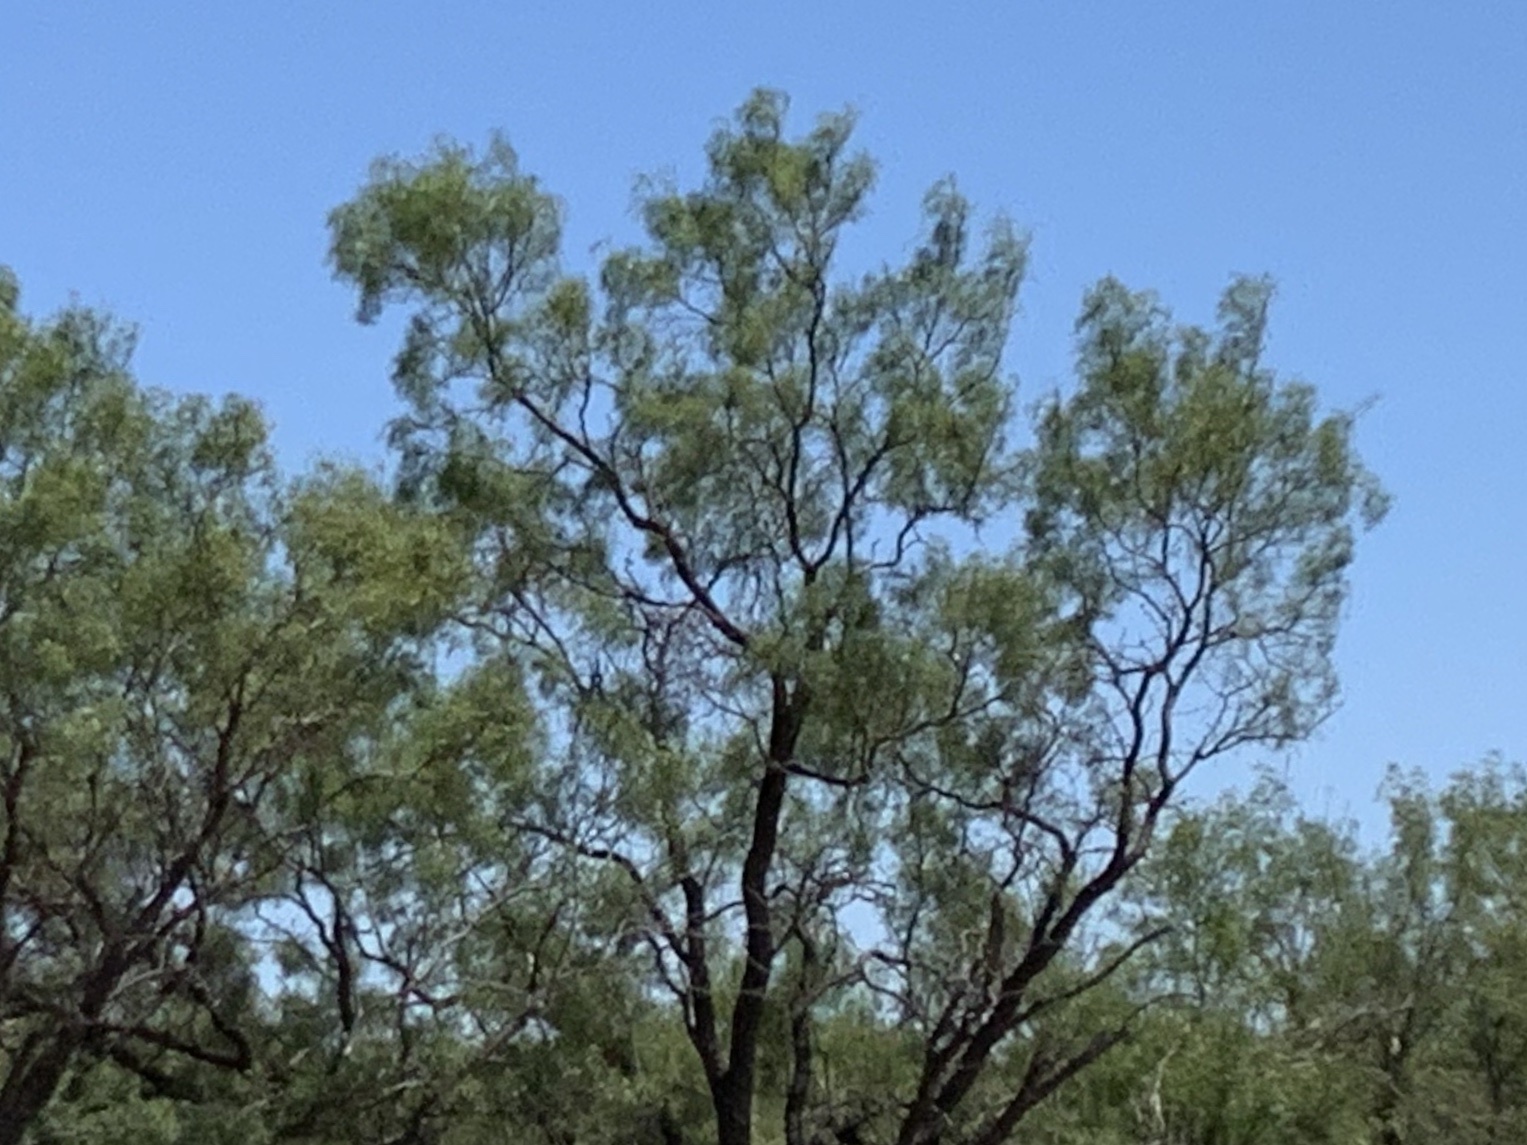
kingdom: Plantae
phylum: Tracheophyta
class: Magnoliopsida
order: Fabales
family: Fabaceae
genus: Prosopis
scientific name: Prosopis glandulosa
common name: Honey mesquite
